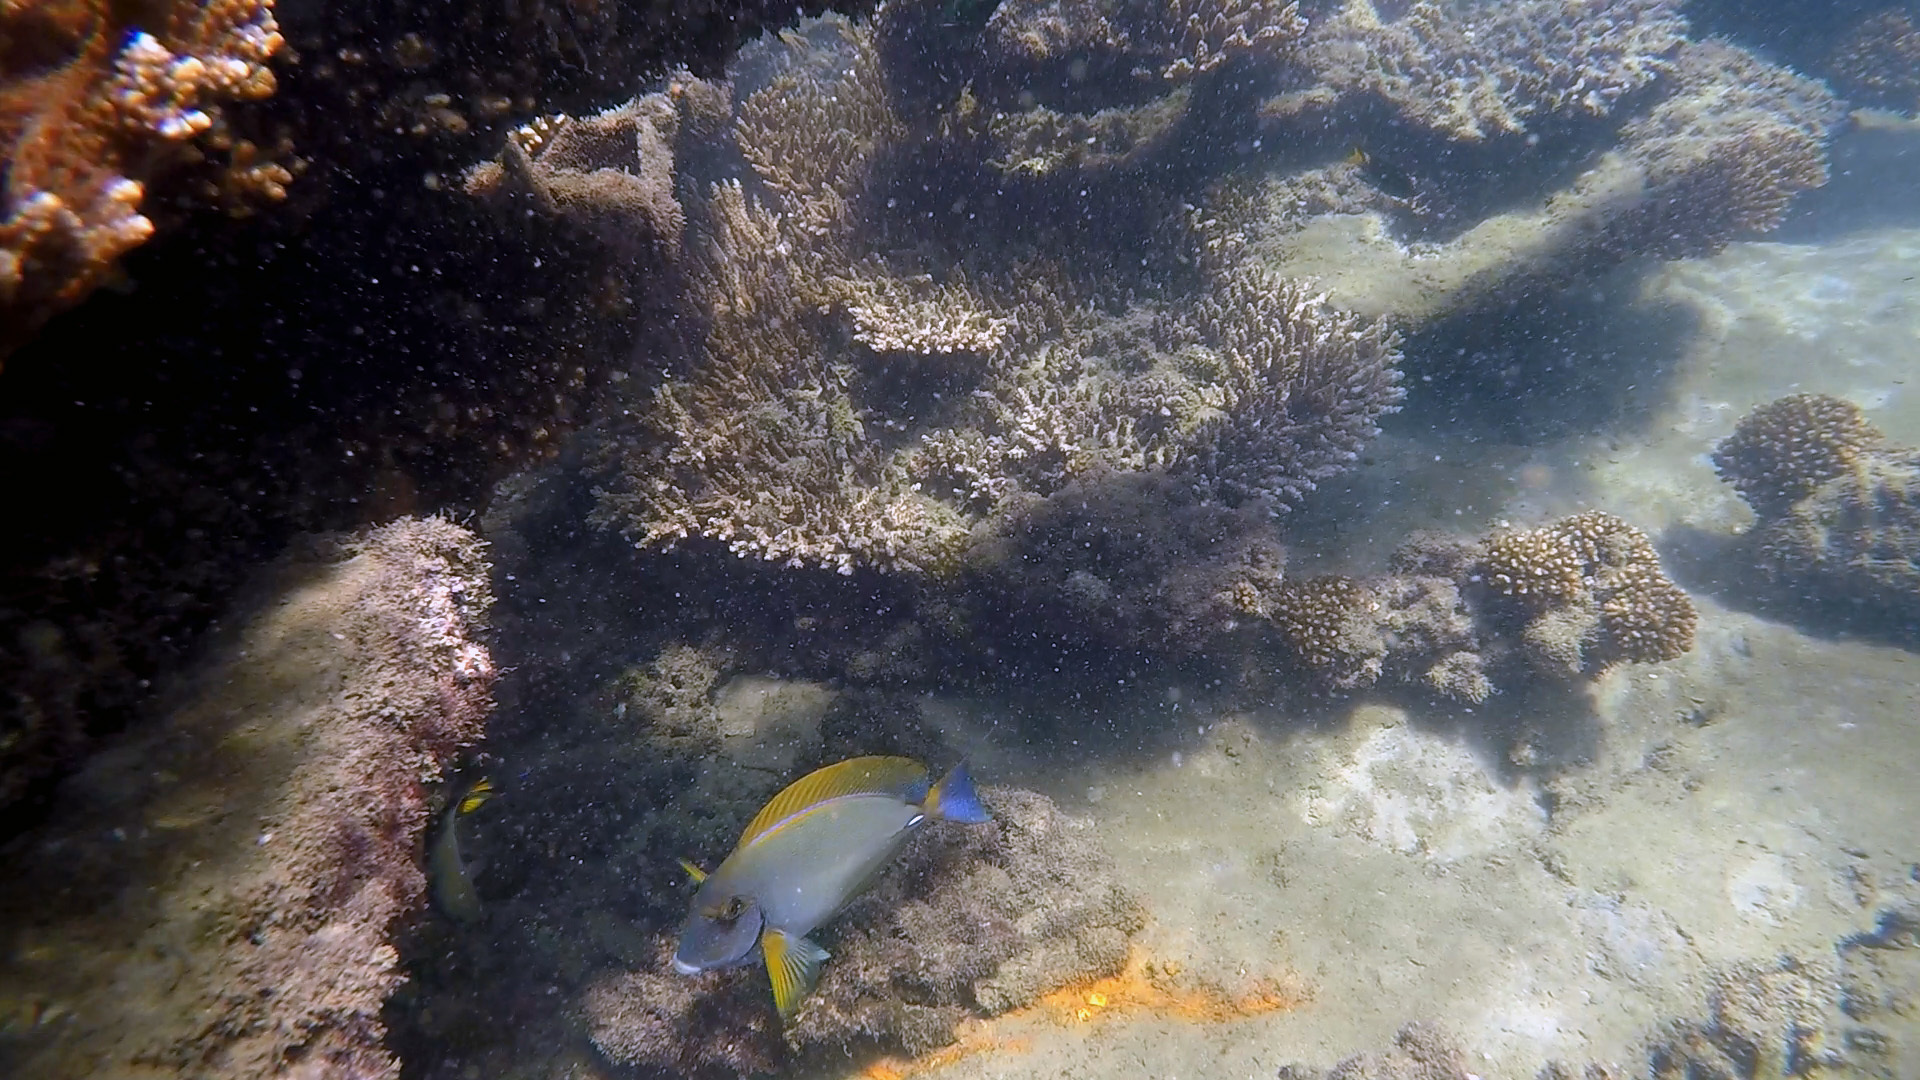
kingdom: Animalia
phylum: Chordata
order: Perciformes
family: Acanthuridae
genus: Acanthurus
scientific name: Acanthurus dussumieri
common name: Dussumier's surgeonfish
